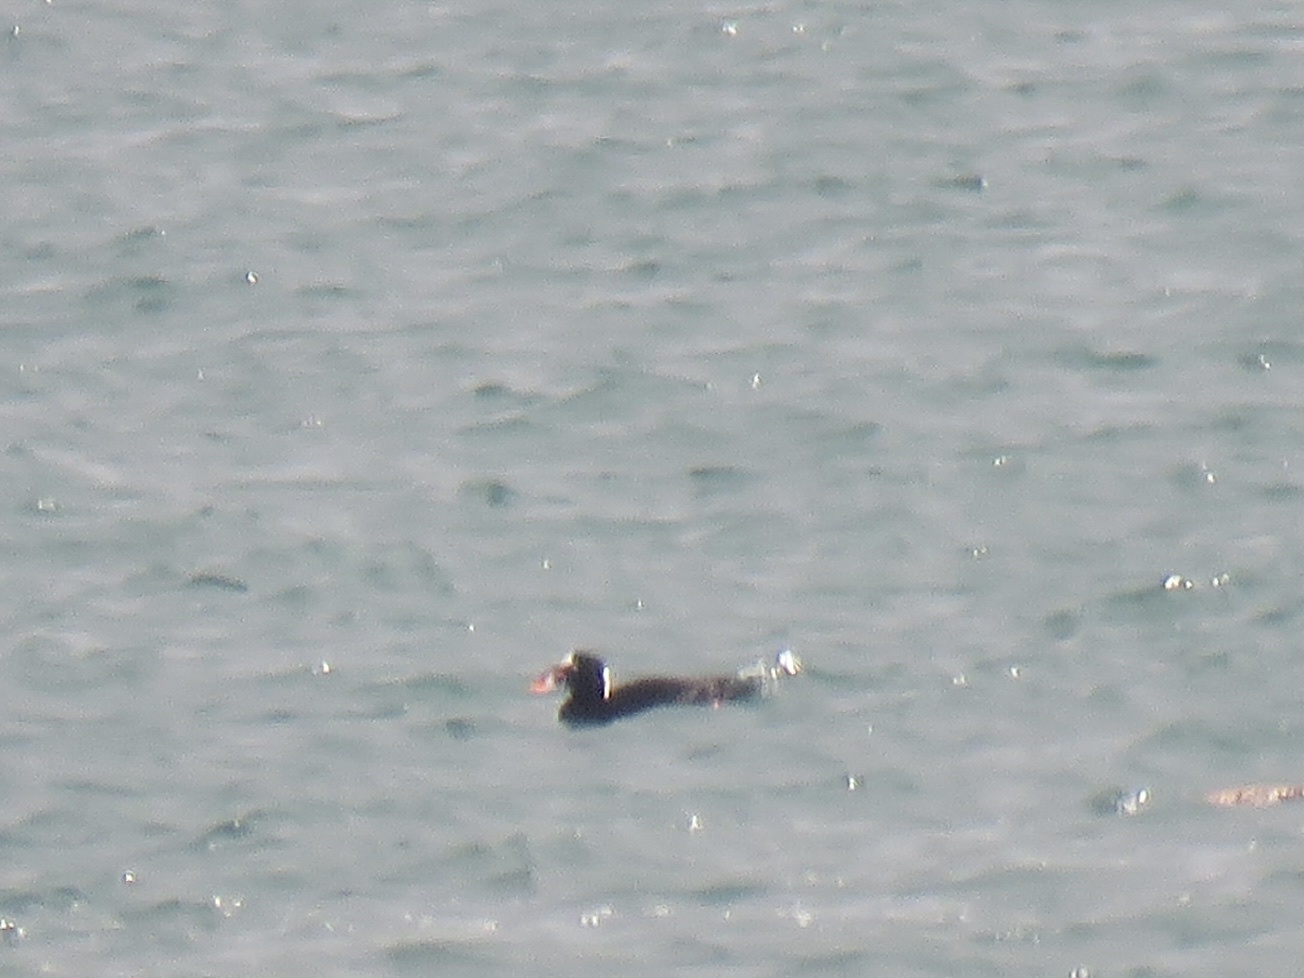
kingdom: Animalia
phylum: Chordata
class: Aves
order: Anseriformes
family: Anatidae
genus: Melanitta
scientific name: Melanitta perspicillata
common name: Surf scoter
